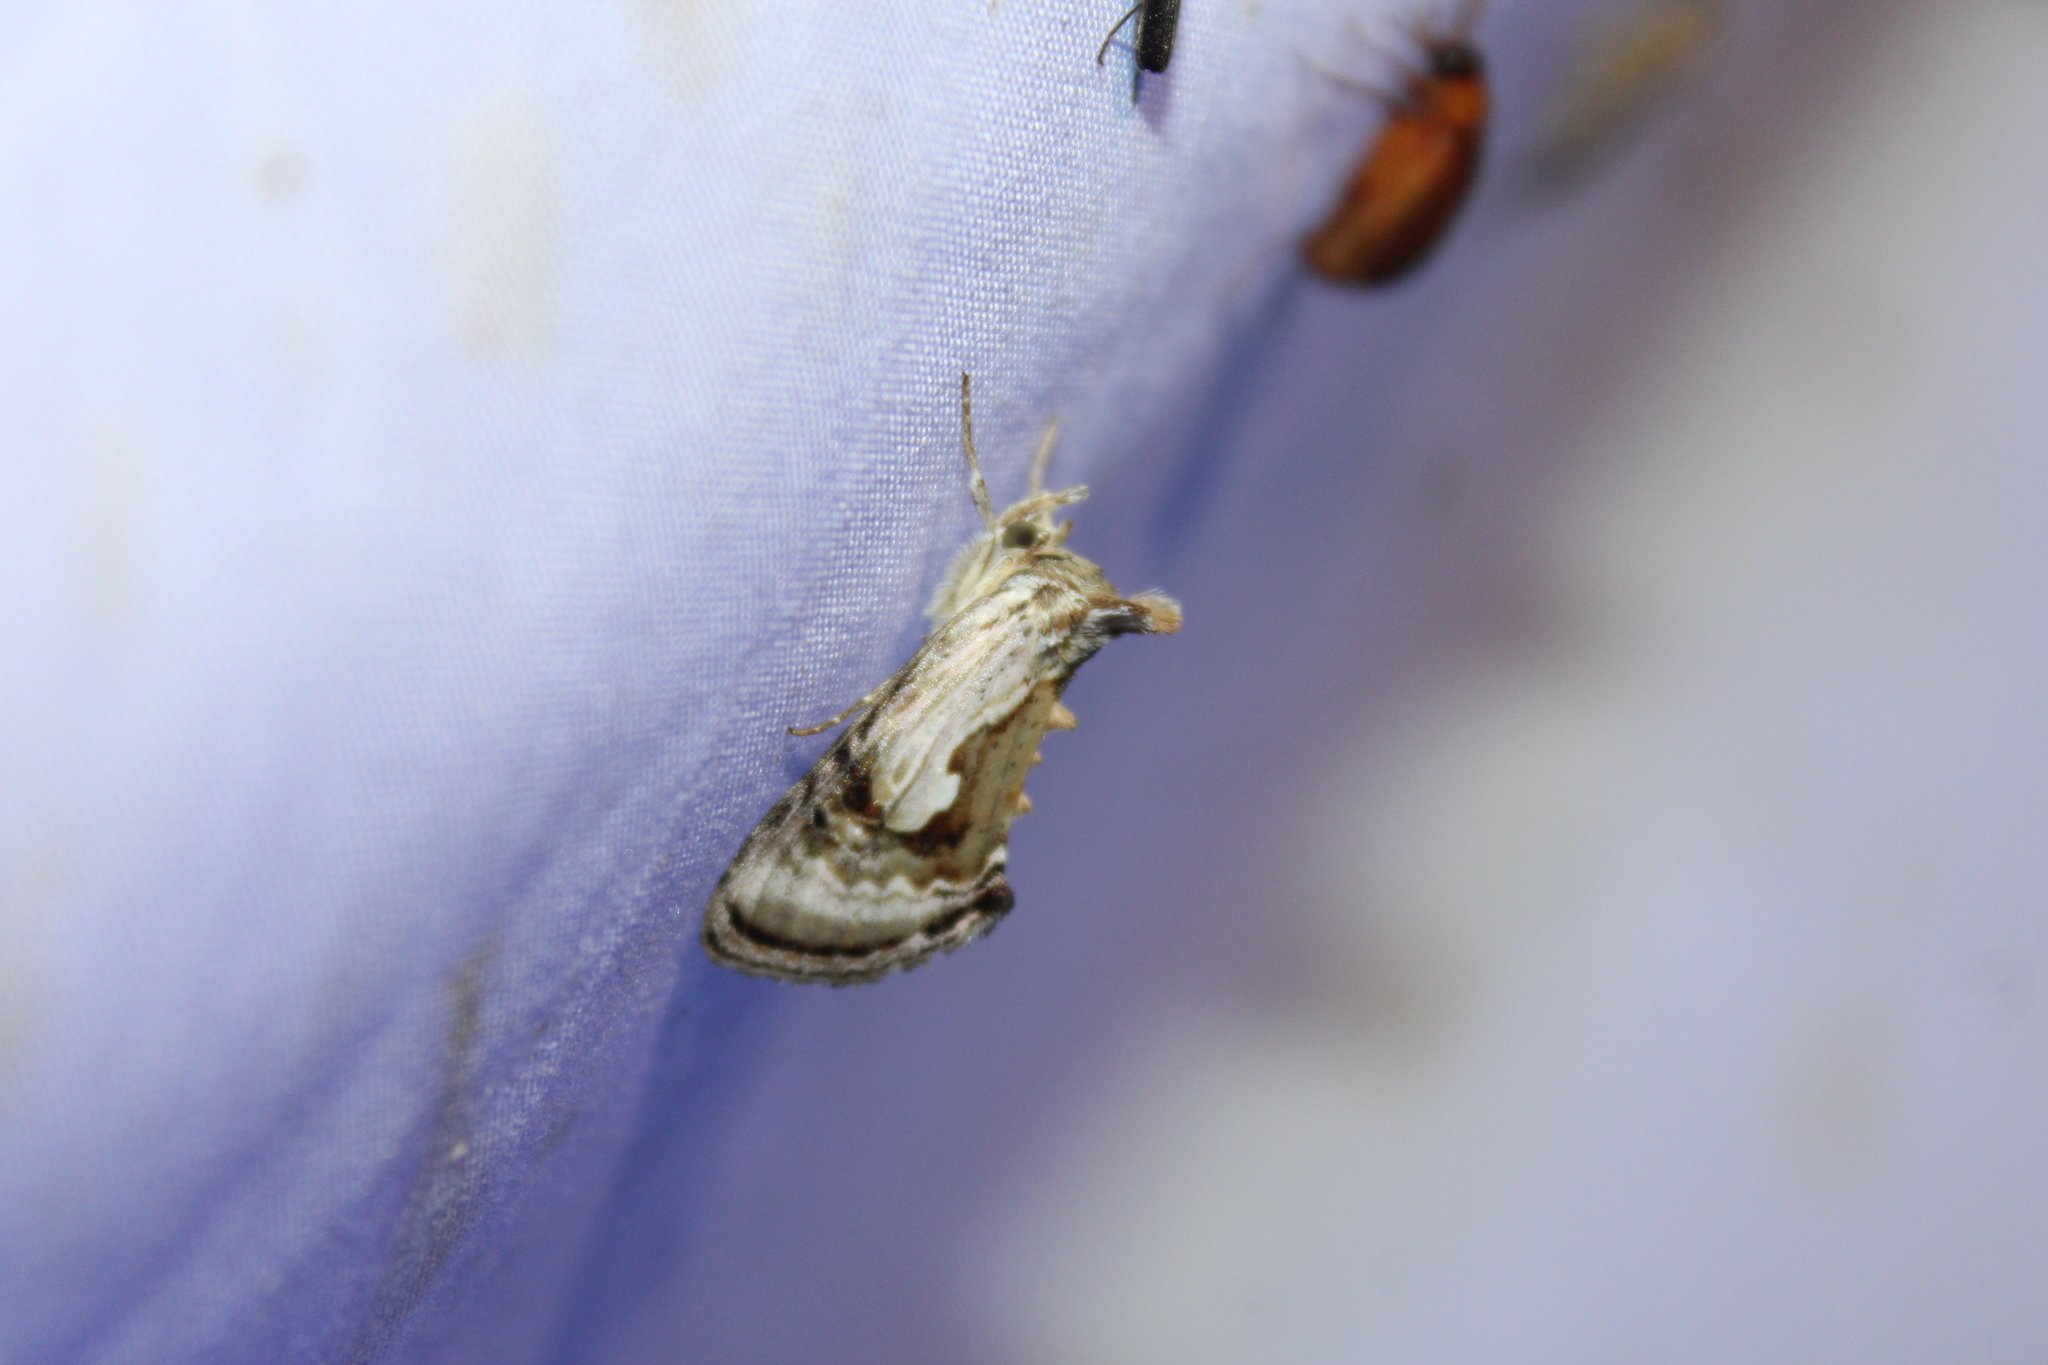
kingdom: Animalia
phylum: Arthropoda
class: Insecta
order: Lepidoptera
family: Noctuidae
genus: Chrysanympha
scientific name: Chrysanympha formosa
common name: Formosa looper moth
